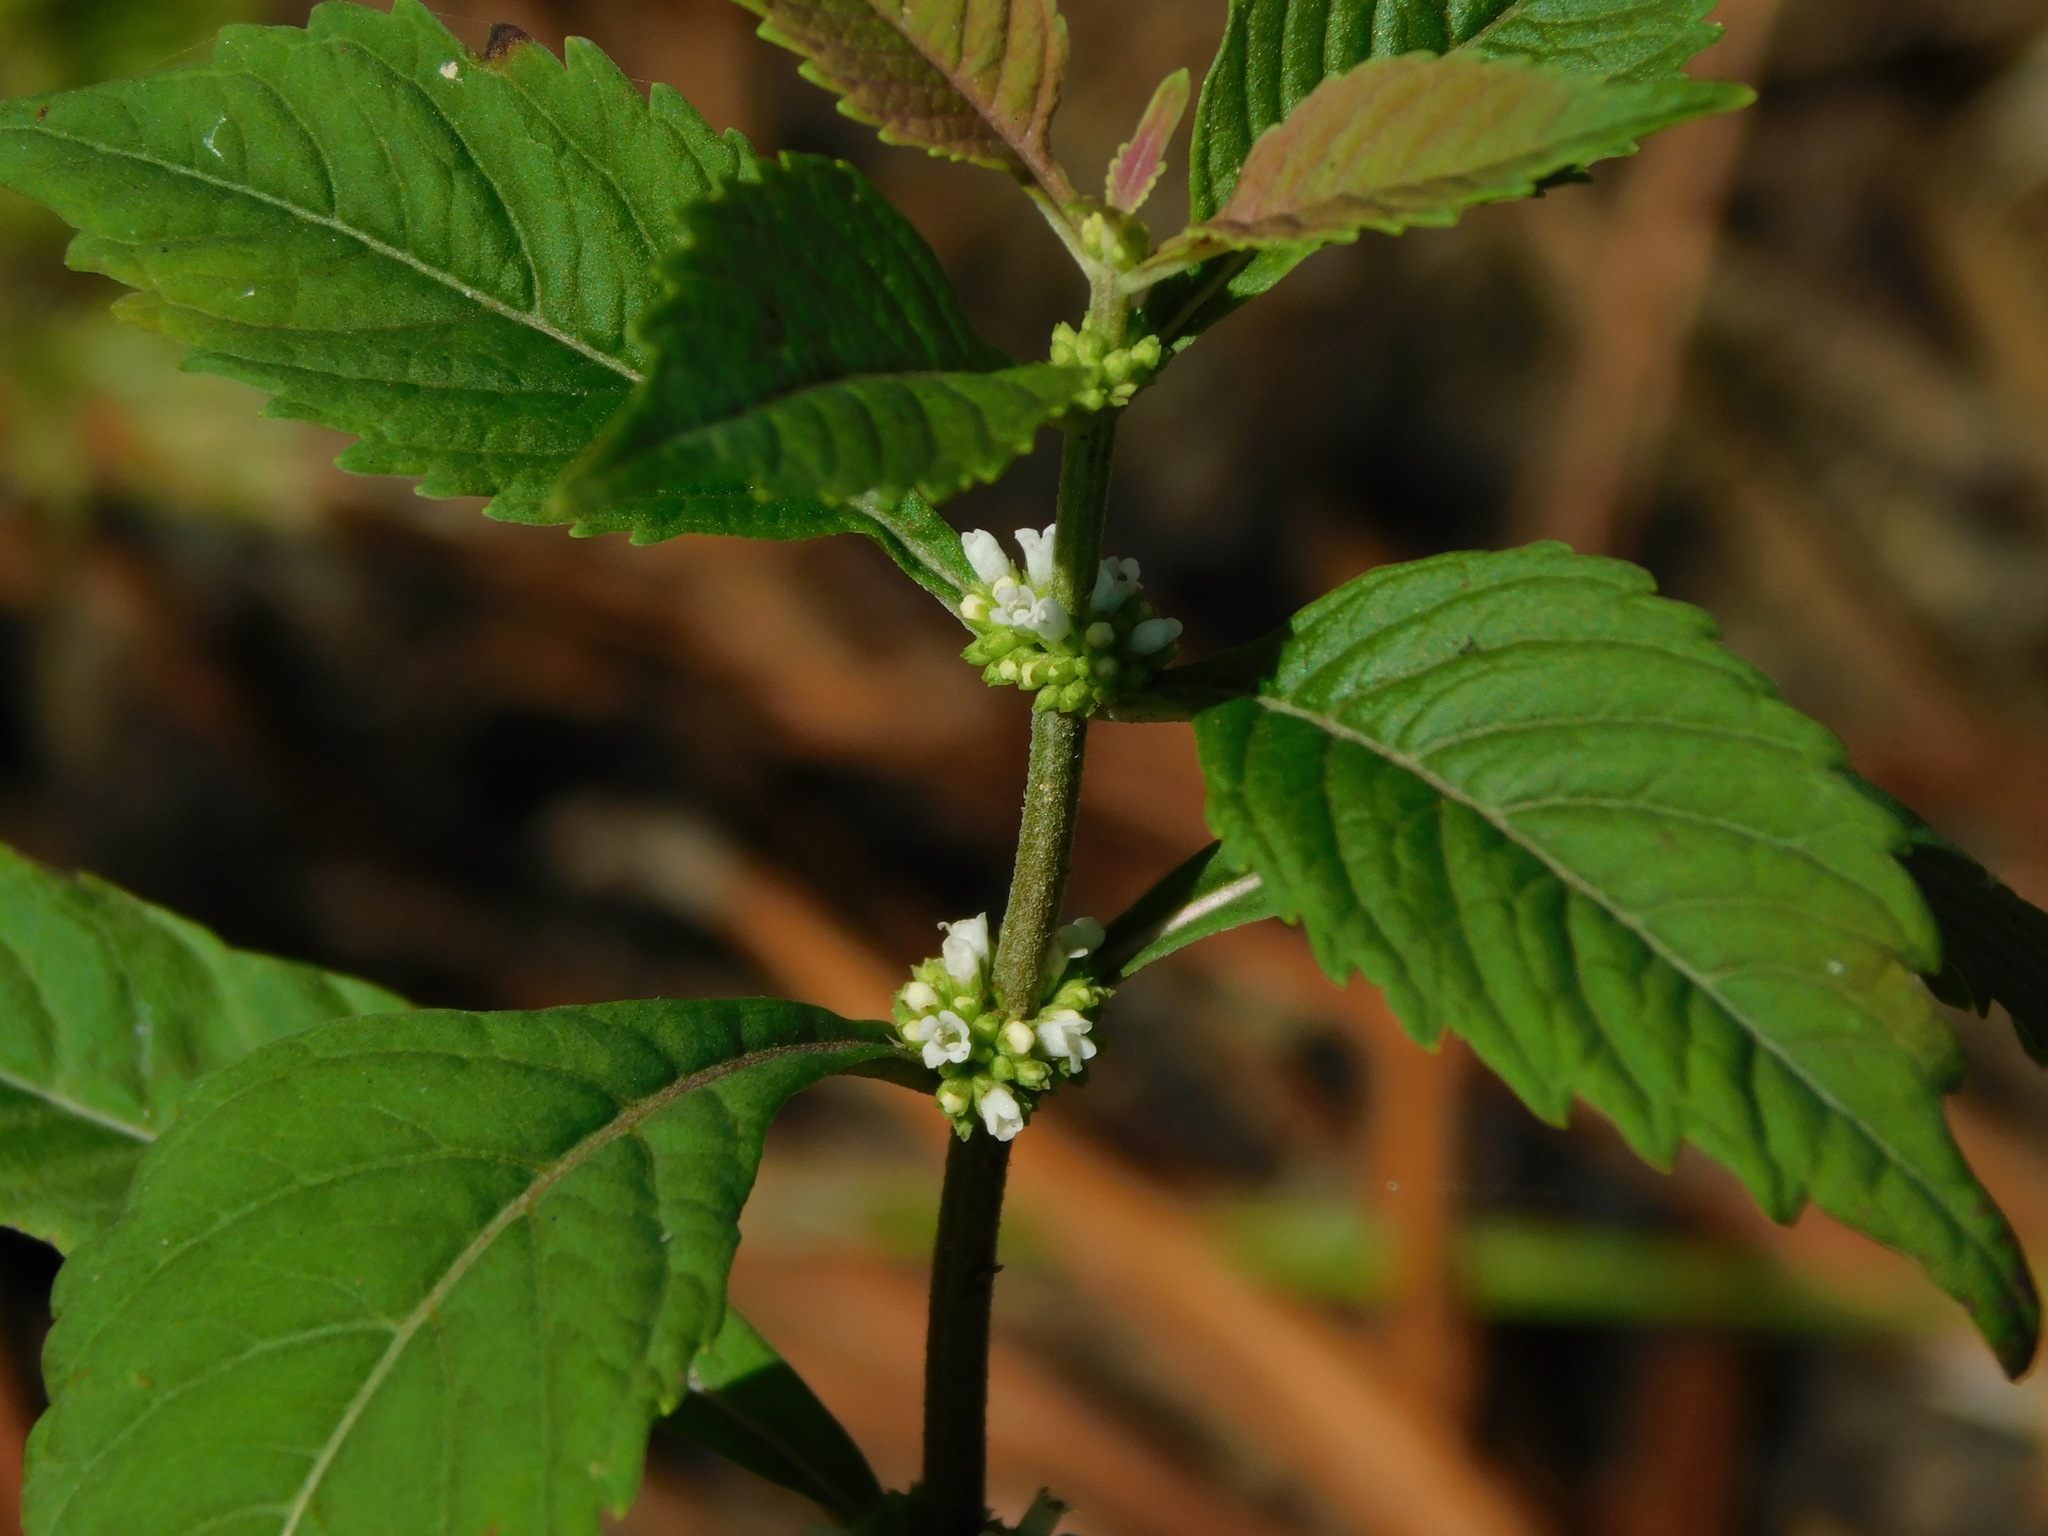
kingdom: Plantae
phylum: Tracheophyta
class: Magnoliopsida
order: Lamiales
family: Lamiaceae
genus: Lycopus
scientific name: Lycopus cokeri
